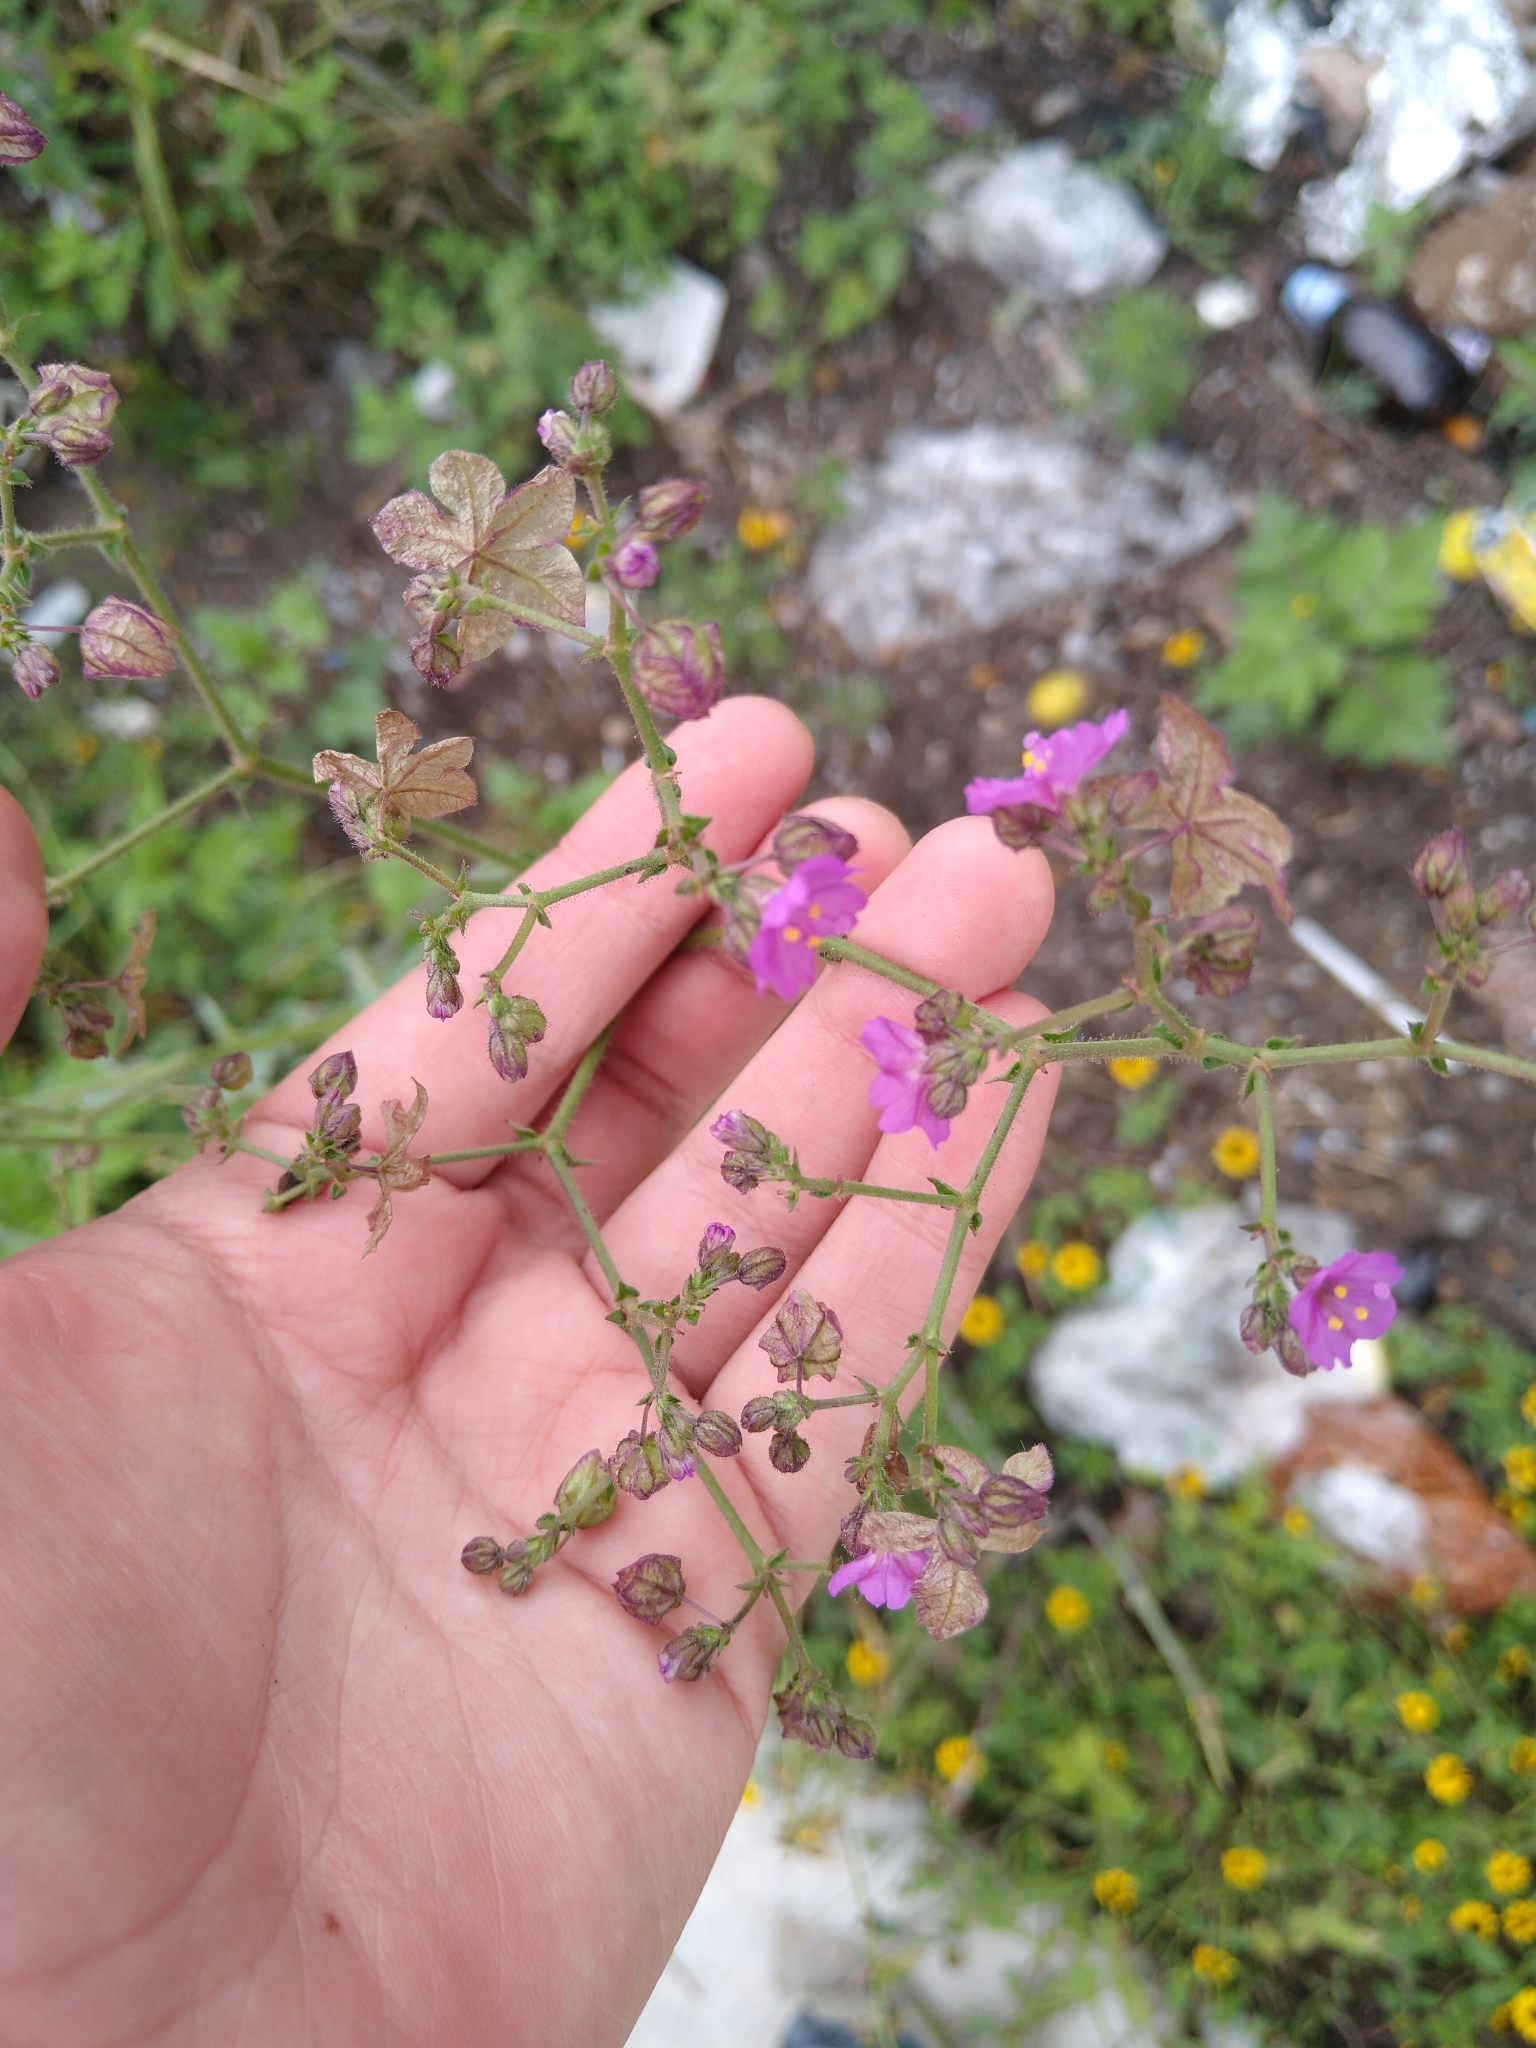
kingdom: Plantae
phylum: Tracheophyta
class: Magnoliopsida
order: Caryophyllales
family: Nyctaginaceae
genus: Mirabilis
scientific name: Mirabilis viscosa
